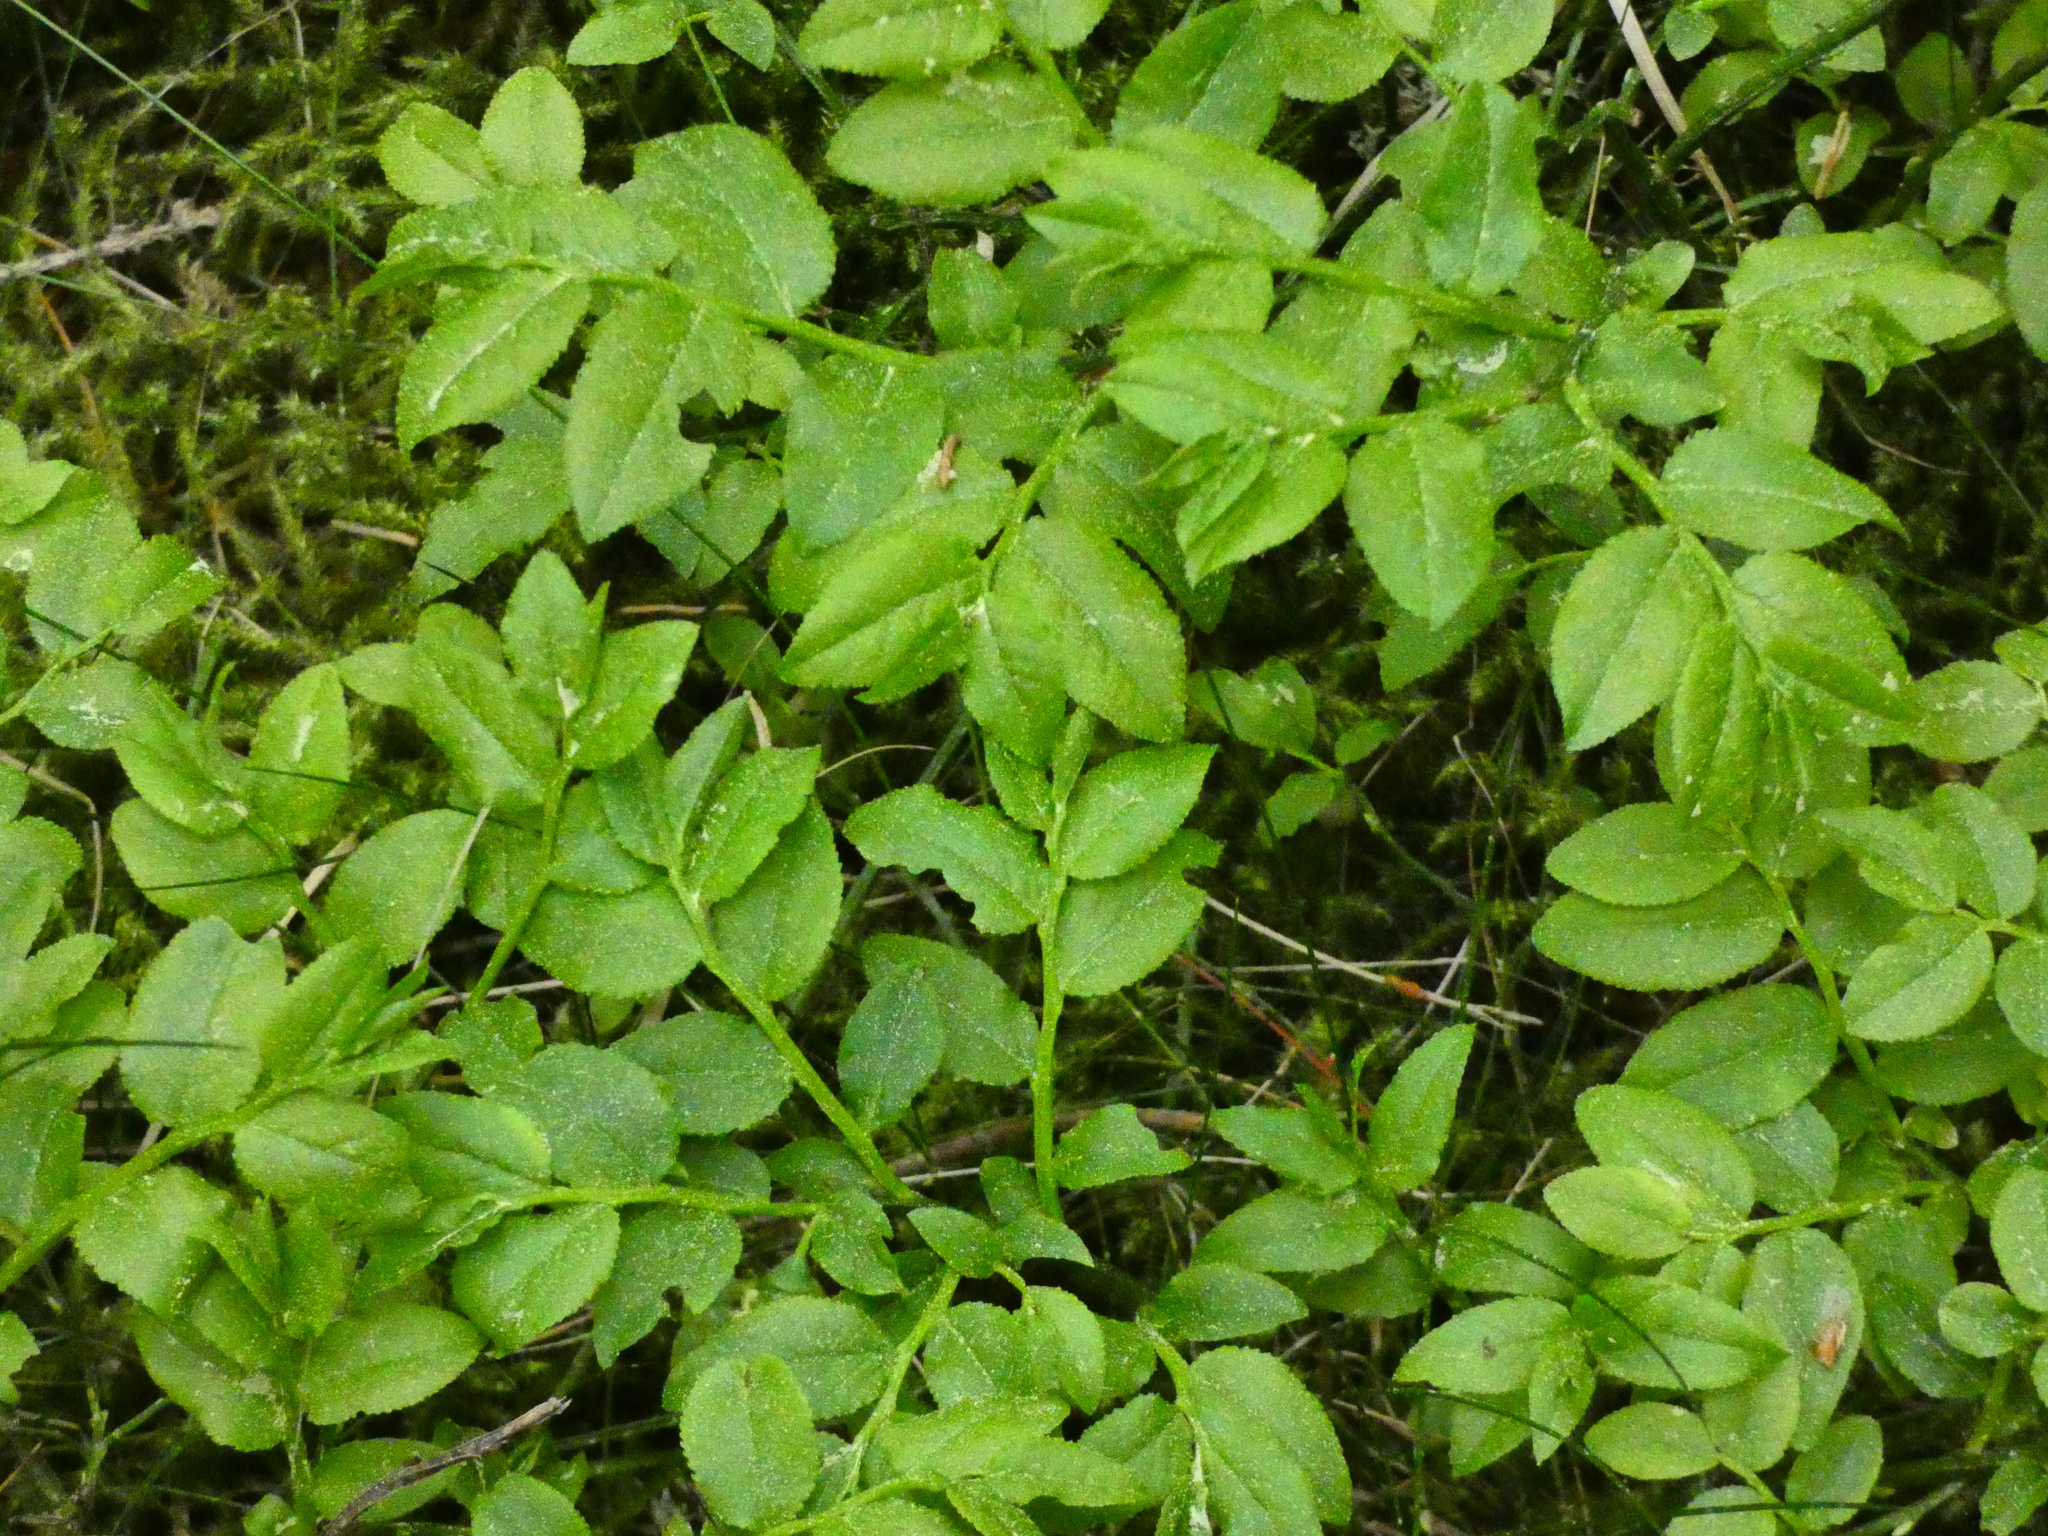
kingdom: Plantae
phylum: Tracheophyta
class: Magnoliopsida
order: Ericales
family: Ericaceae
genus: Vaccinium
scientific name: Vaccinium myrtillus
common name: Bilberry
